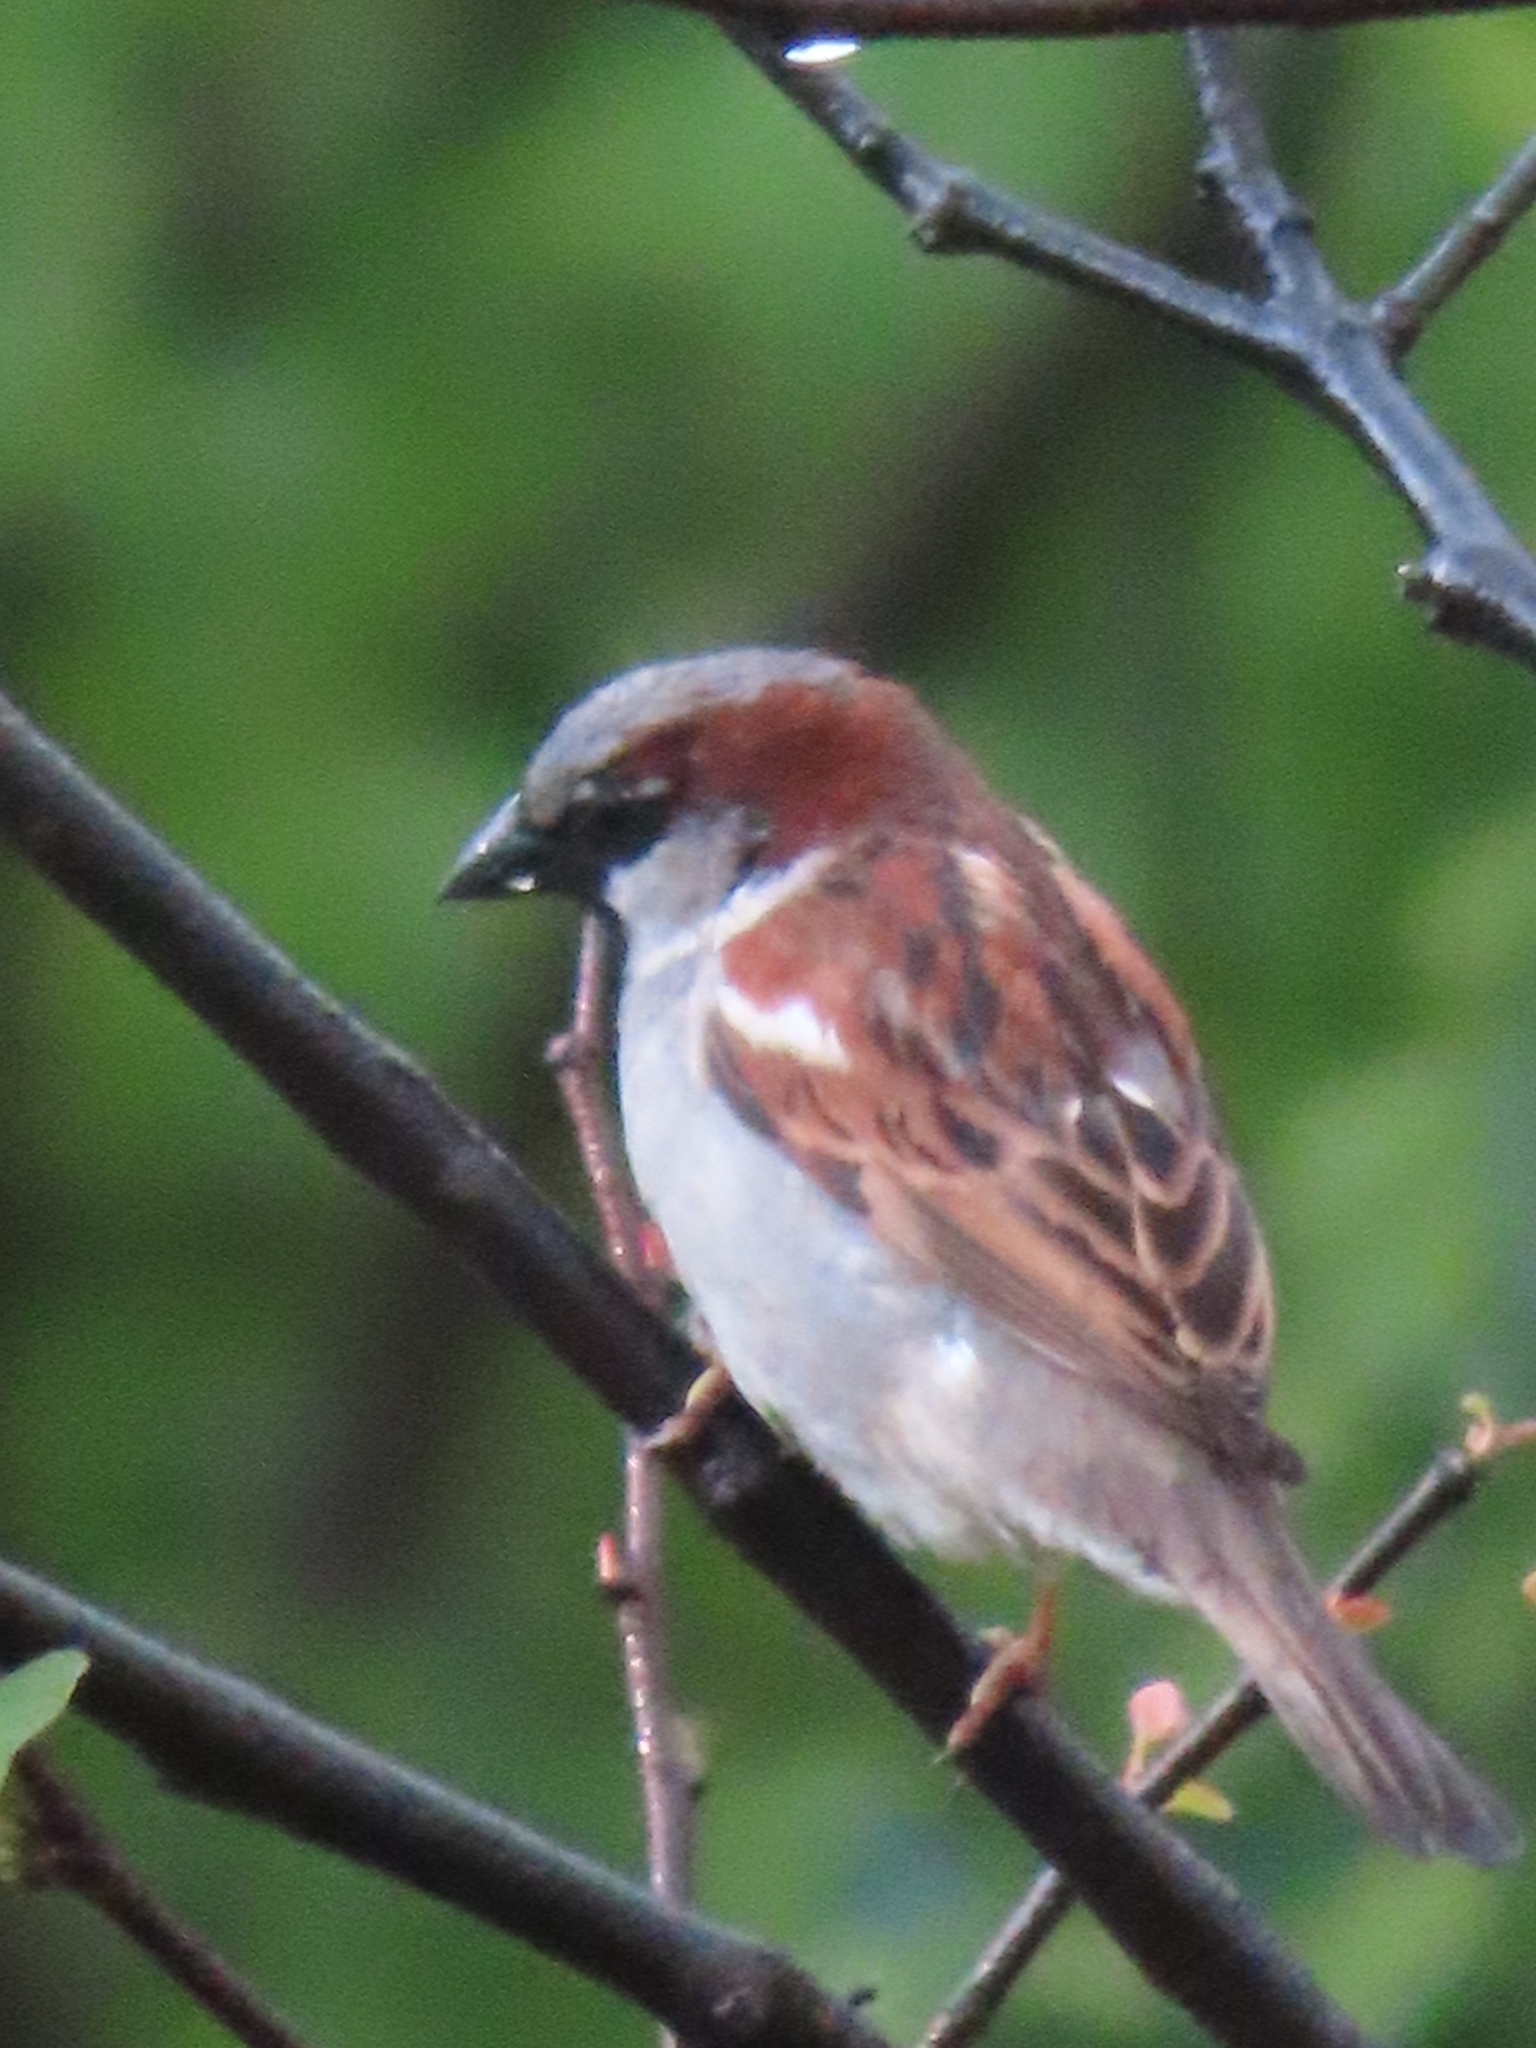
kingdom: Animalia
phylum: Chordata
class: Aves
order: Passeriformes
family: Passeridae
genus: Passer
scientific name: Passer domesticus
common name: House sparrow
